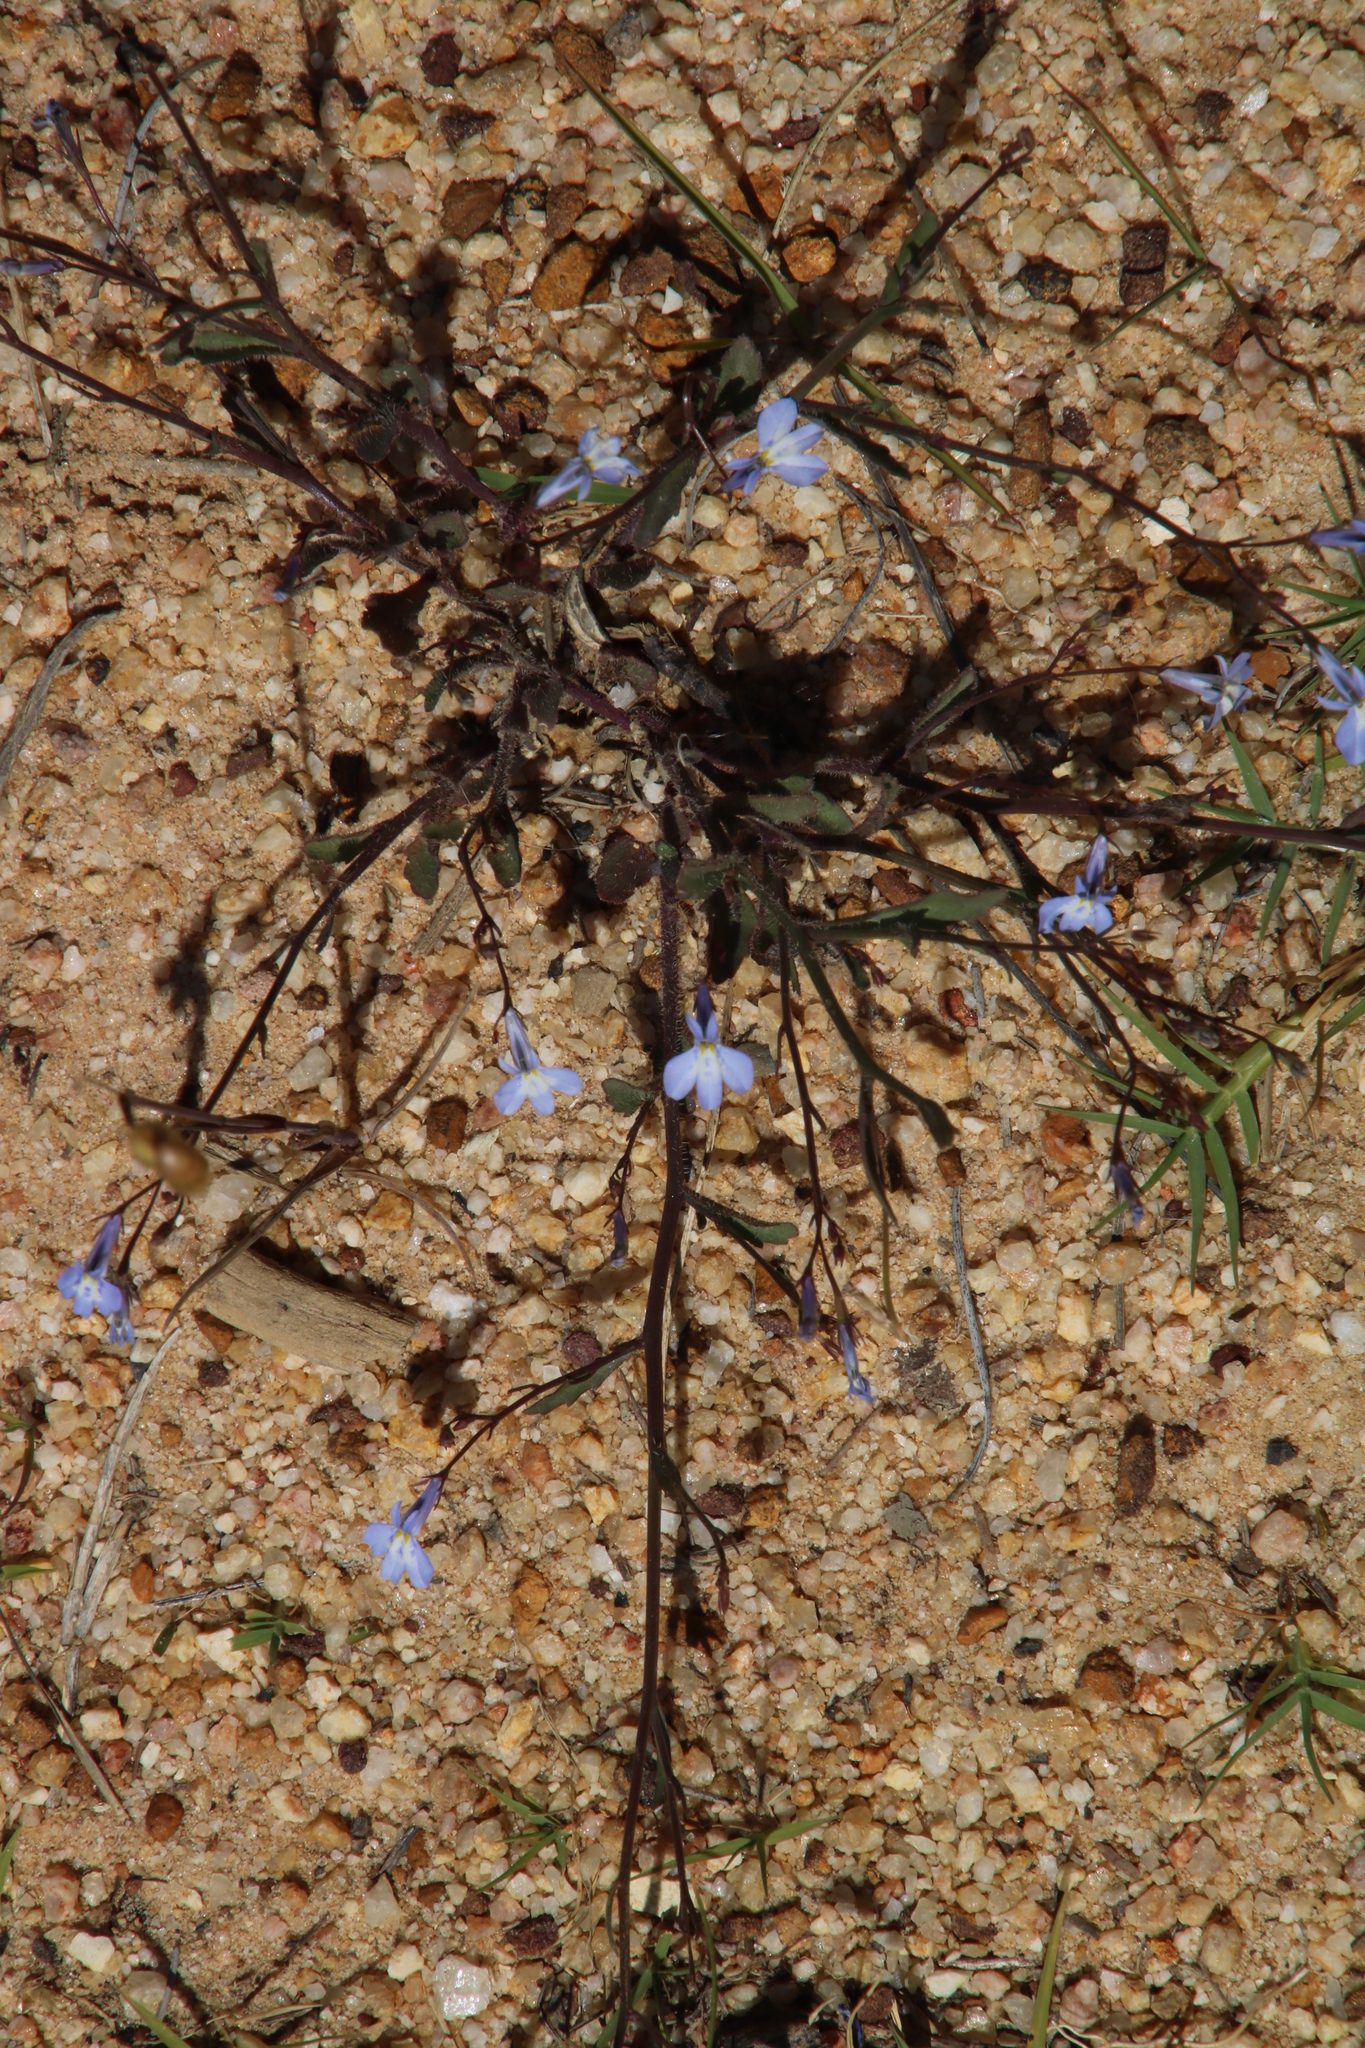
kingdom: Plantae
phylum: Tracheophyta
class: Magnoliopsida
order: Asterales
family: Campanulaceae
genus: Lobelia
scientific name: Lobelia erinus
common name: Edging lobelia
